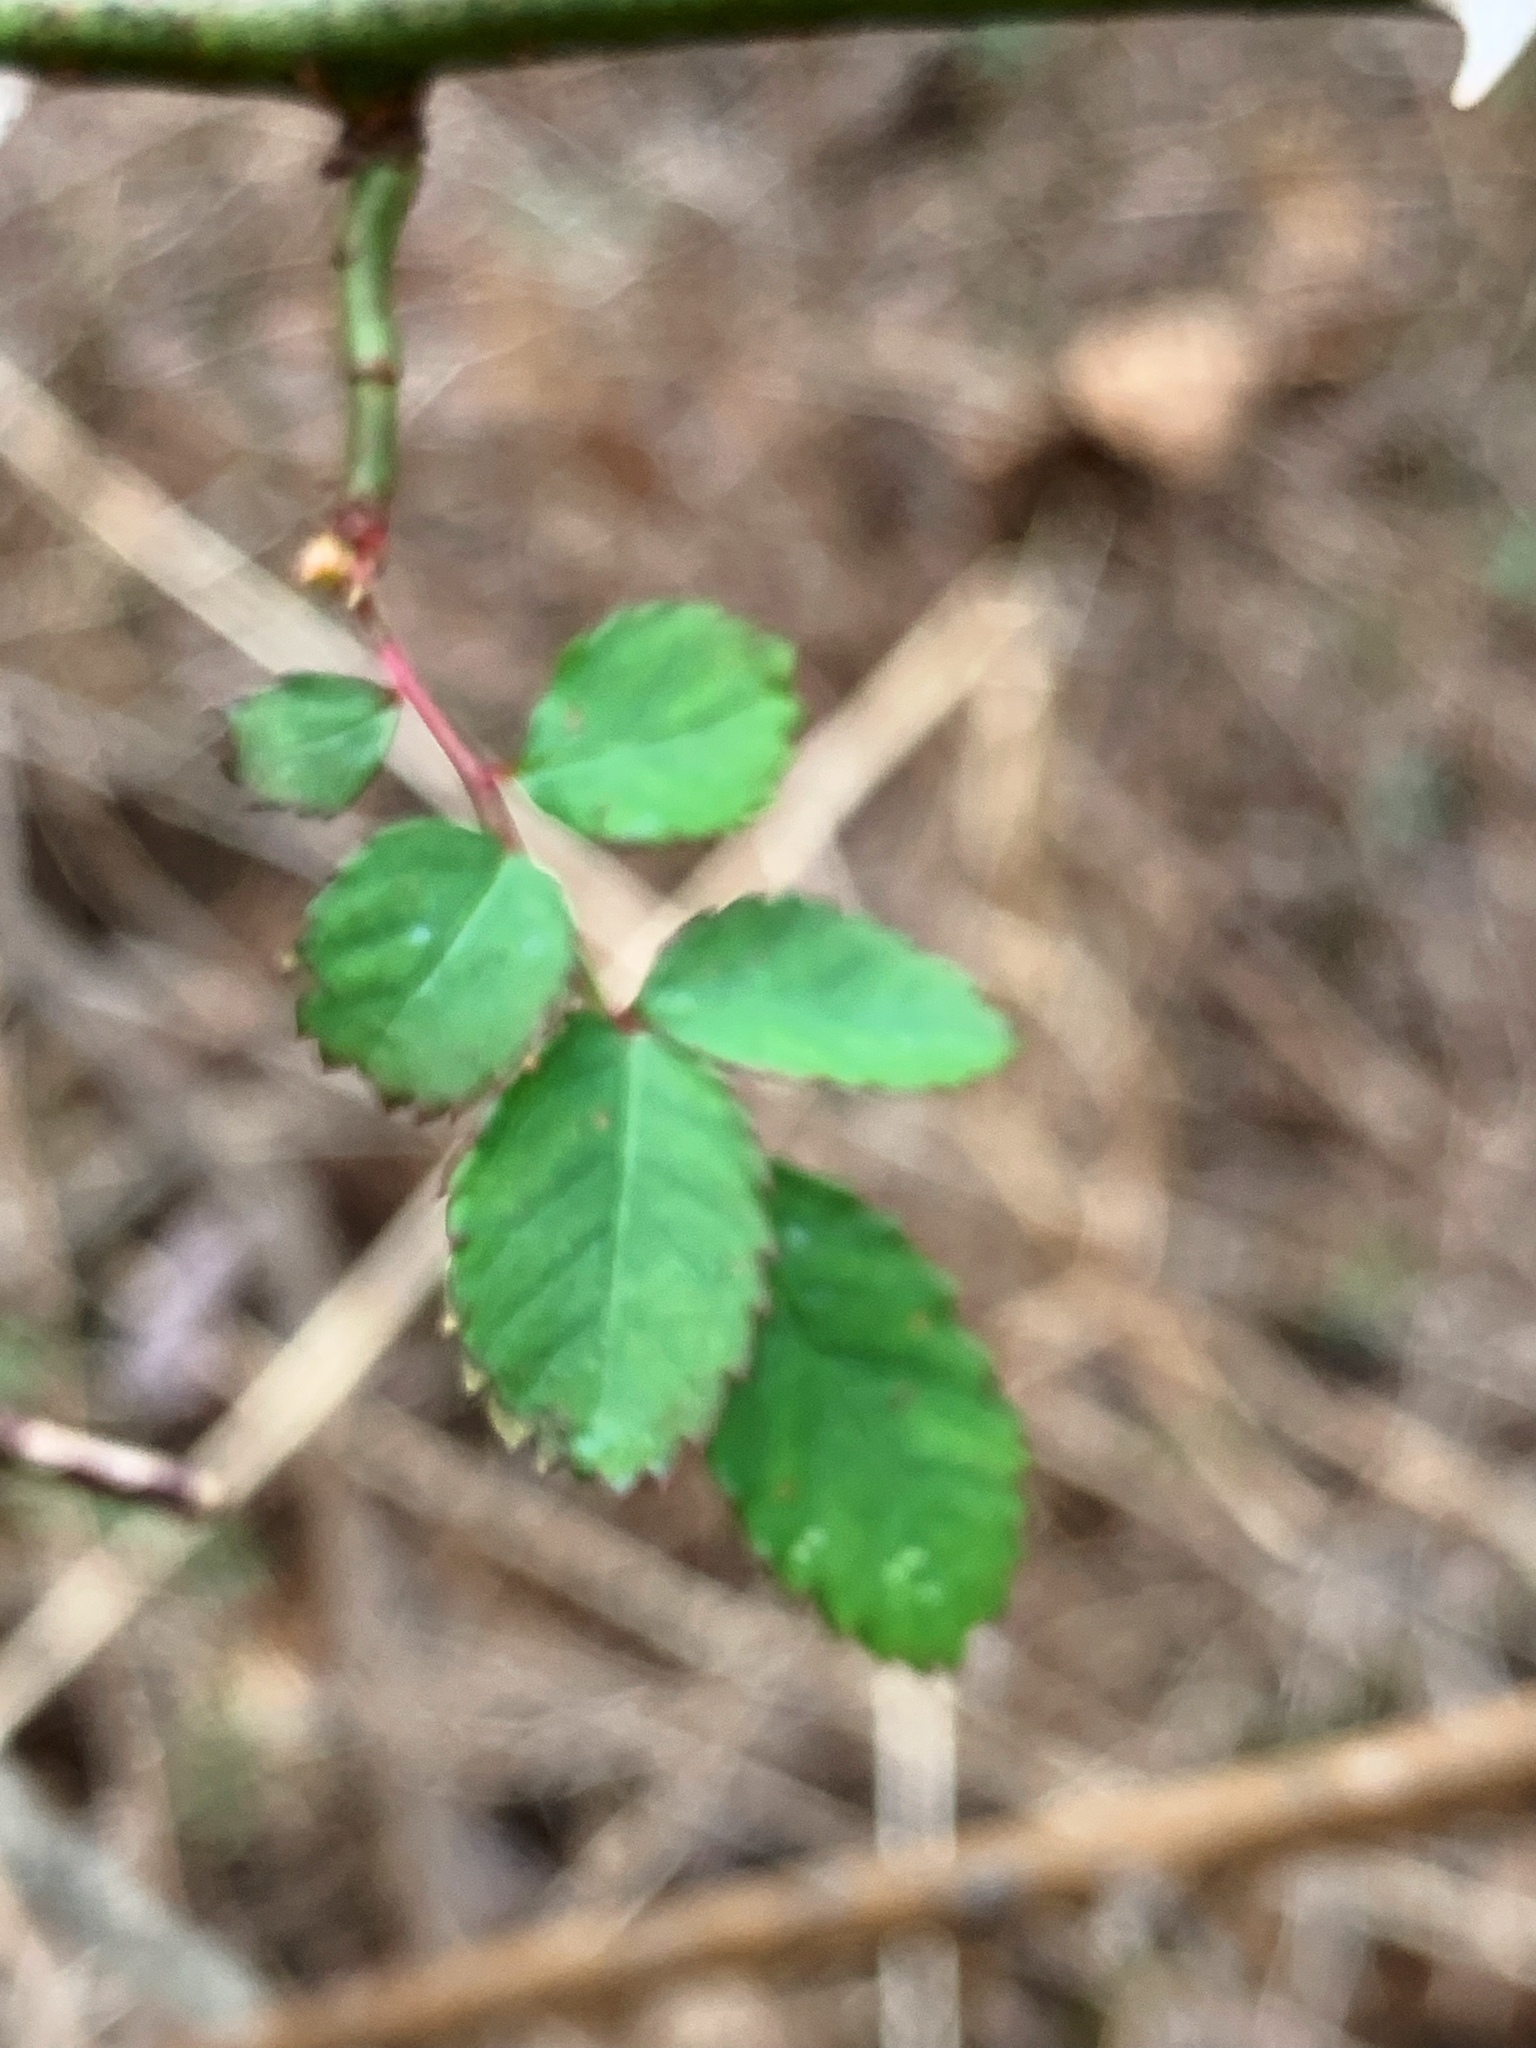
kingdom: Plantae
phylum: Tracheophyta
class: Magnoliopsida
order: Rosales
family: Rosaceae
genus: Rosa
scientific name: Rosa multiflora
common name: Multiflora rose
